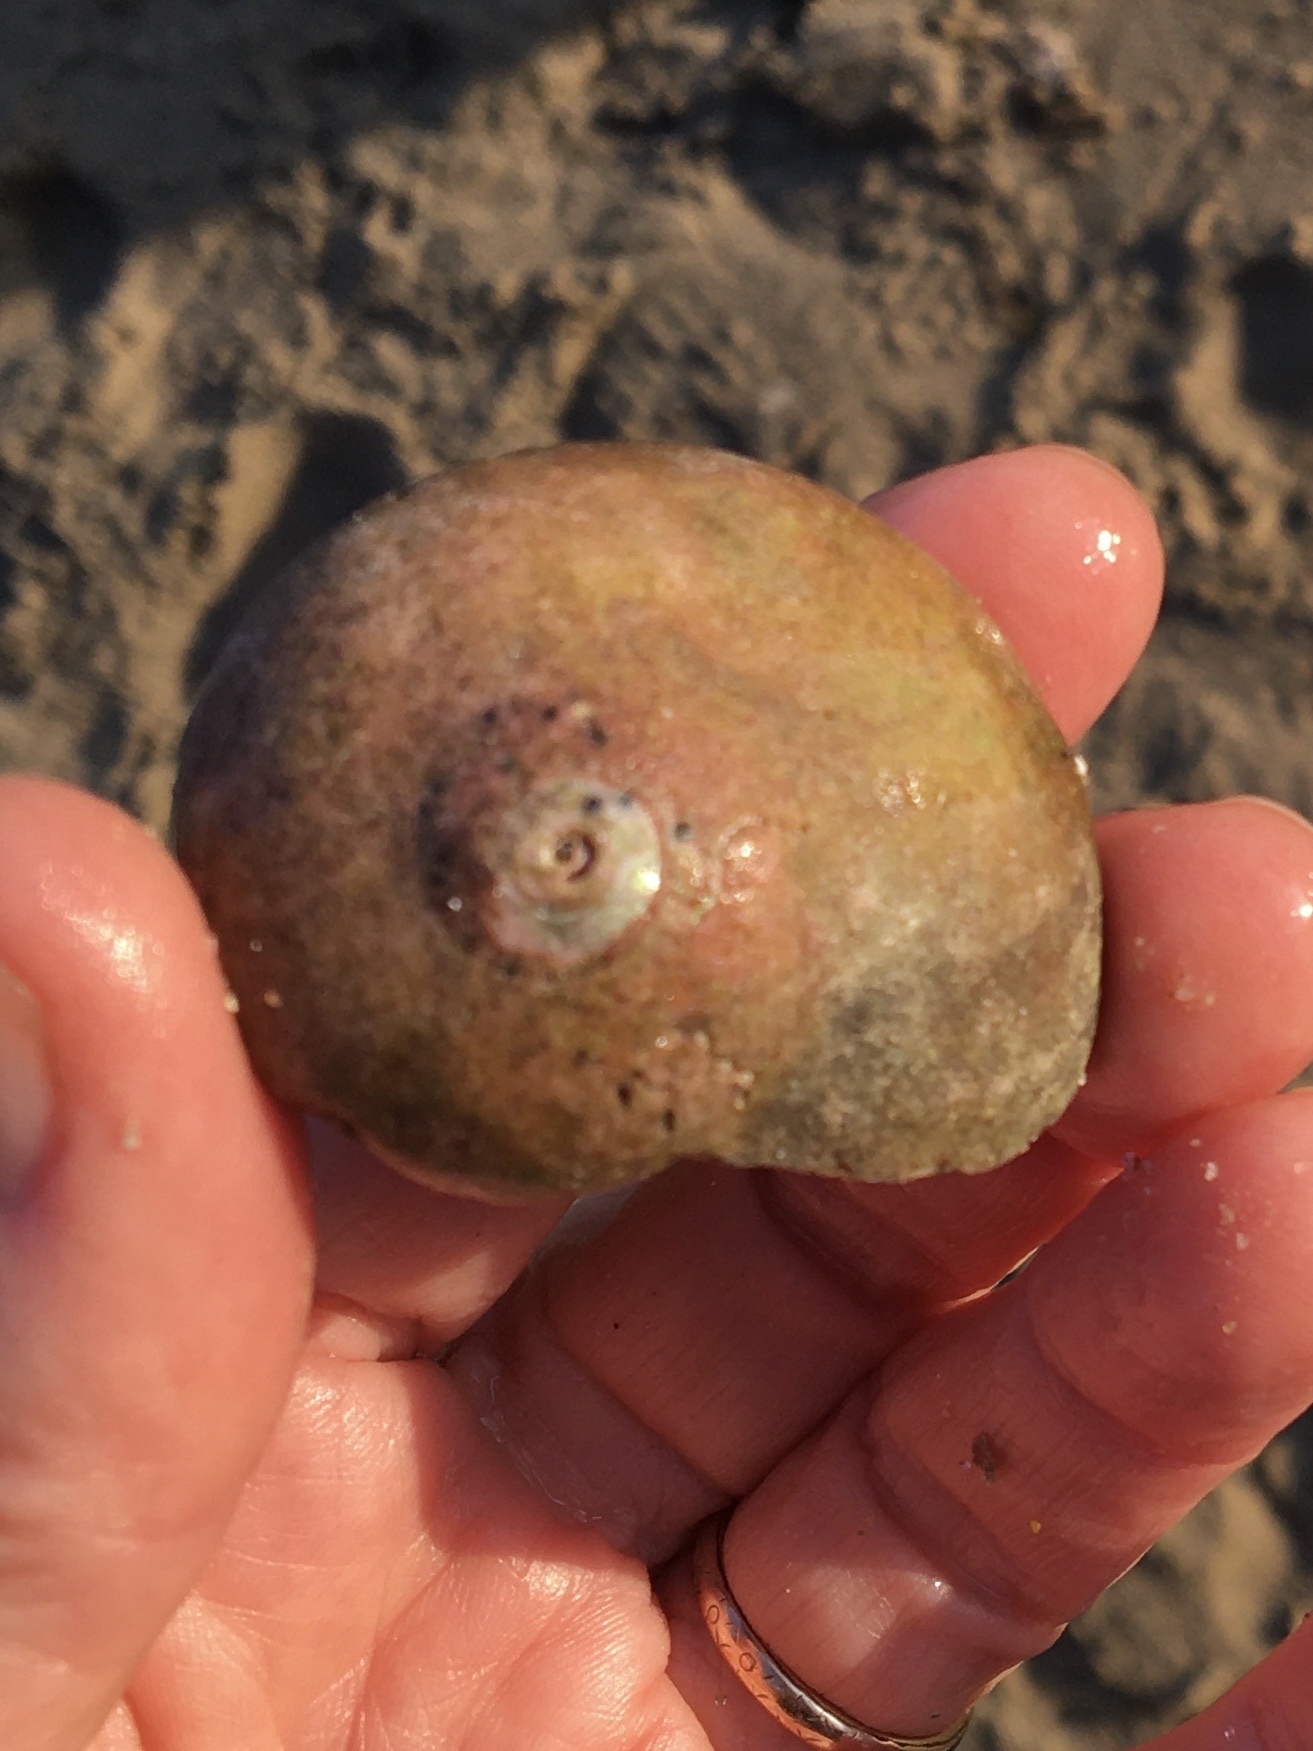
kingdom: Animalia
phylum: Mollusca
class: Gastropoda
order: Trochida
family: Tegulidae
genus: Norrisia
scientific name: Norrisia norrisii
